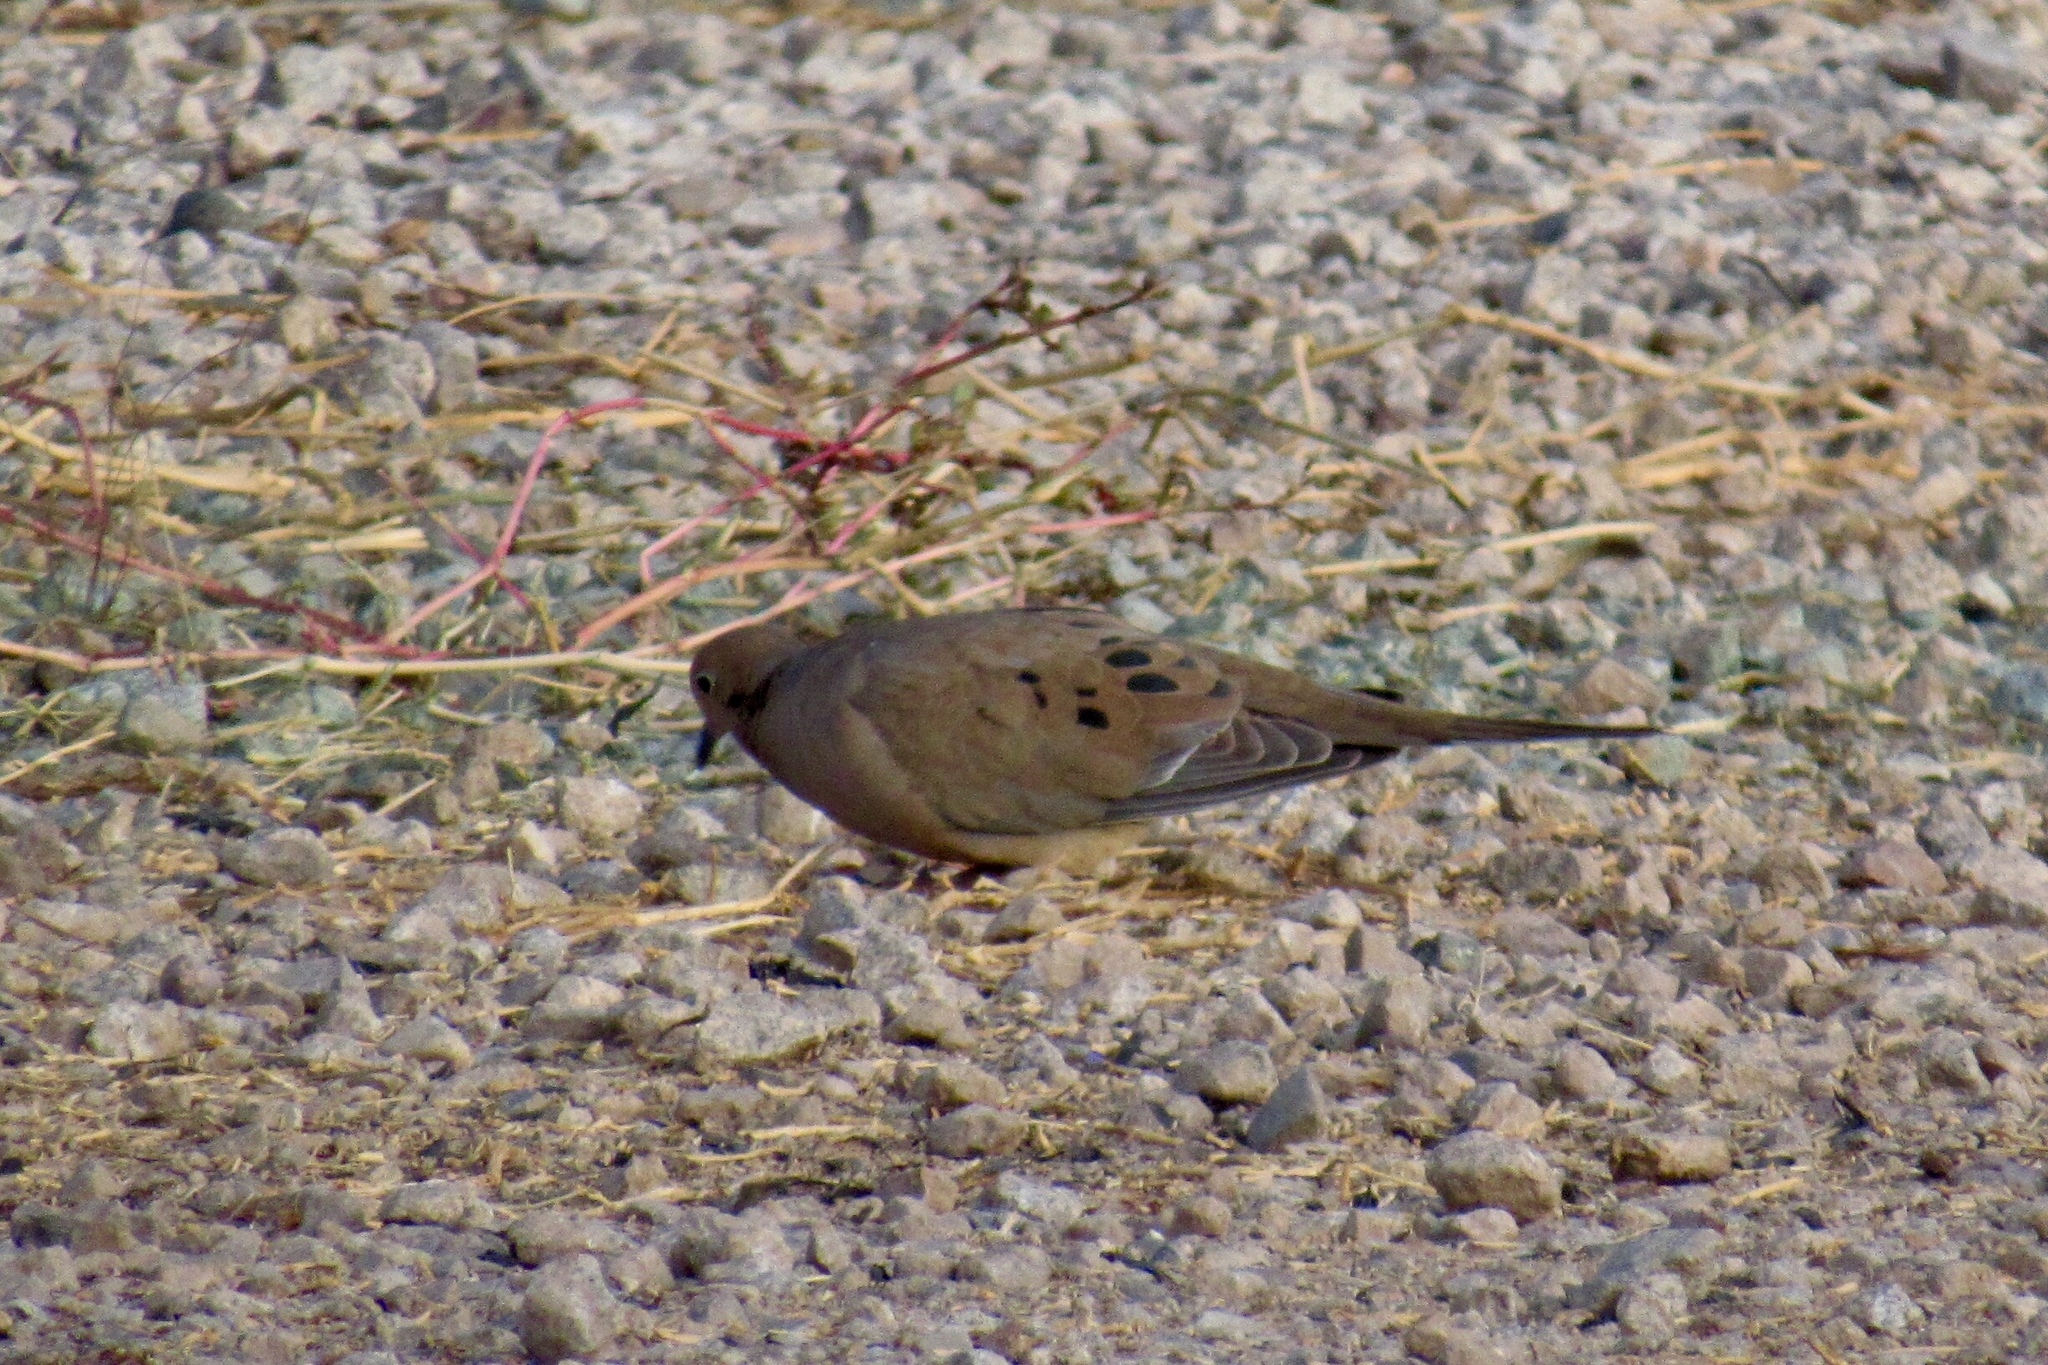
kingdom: Animalia
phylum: Chordata
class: Aves
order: Columbiformes
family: Columbidae
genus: Zenaida
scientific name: Zenaida macroura
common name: Mourning dove
